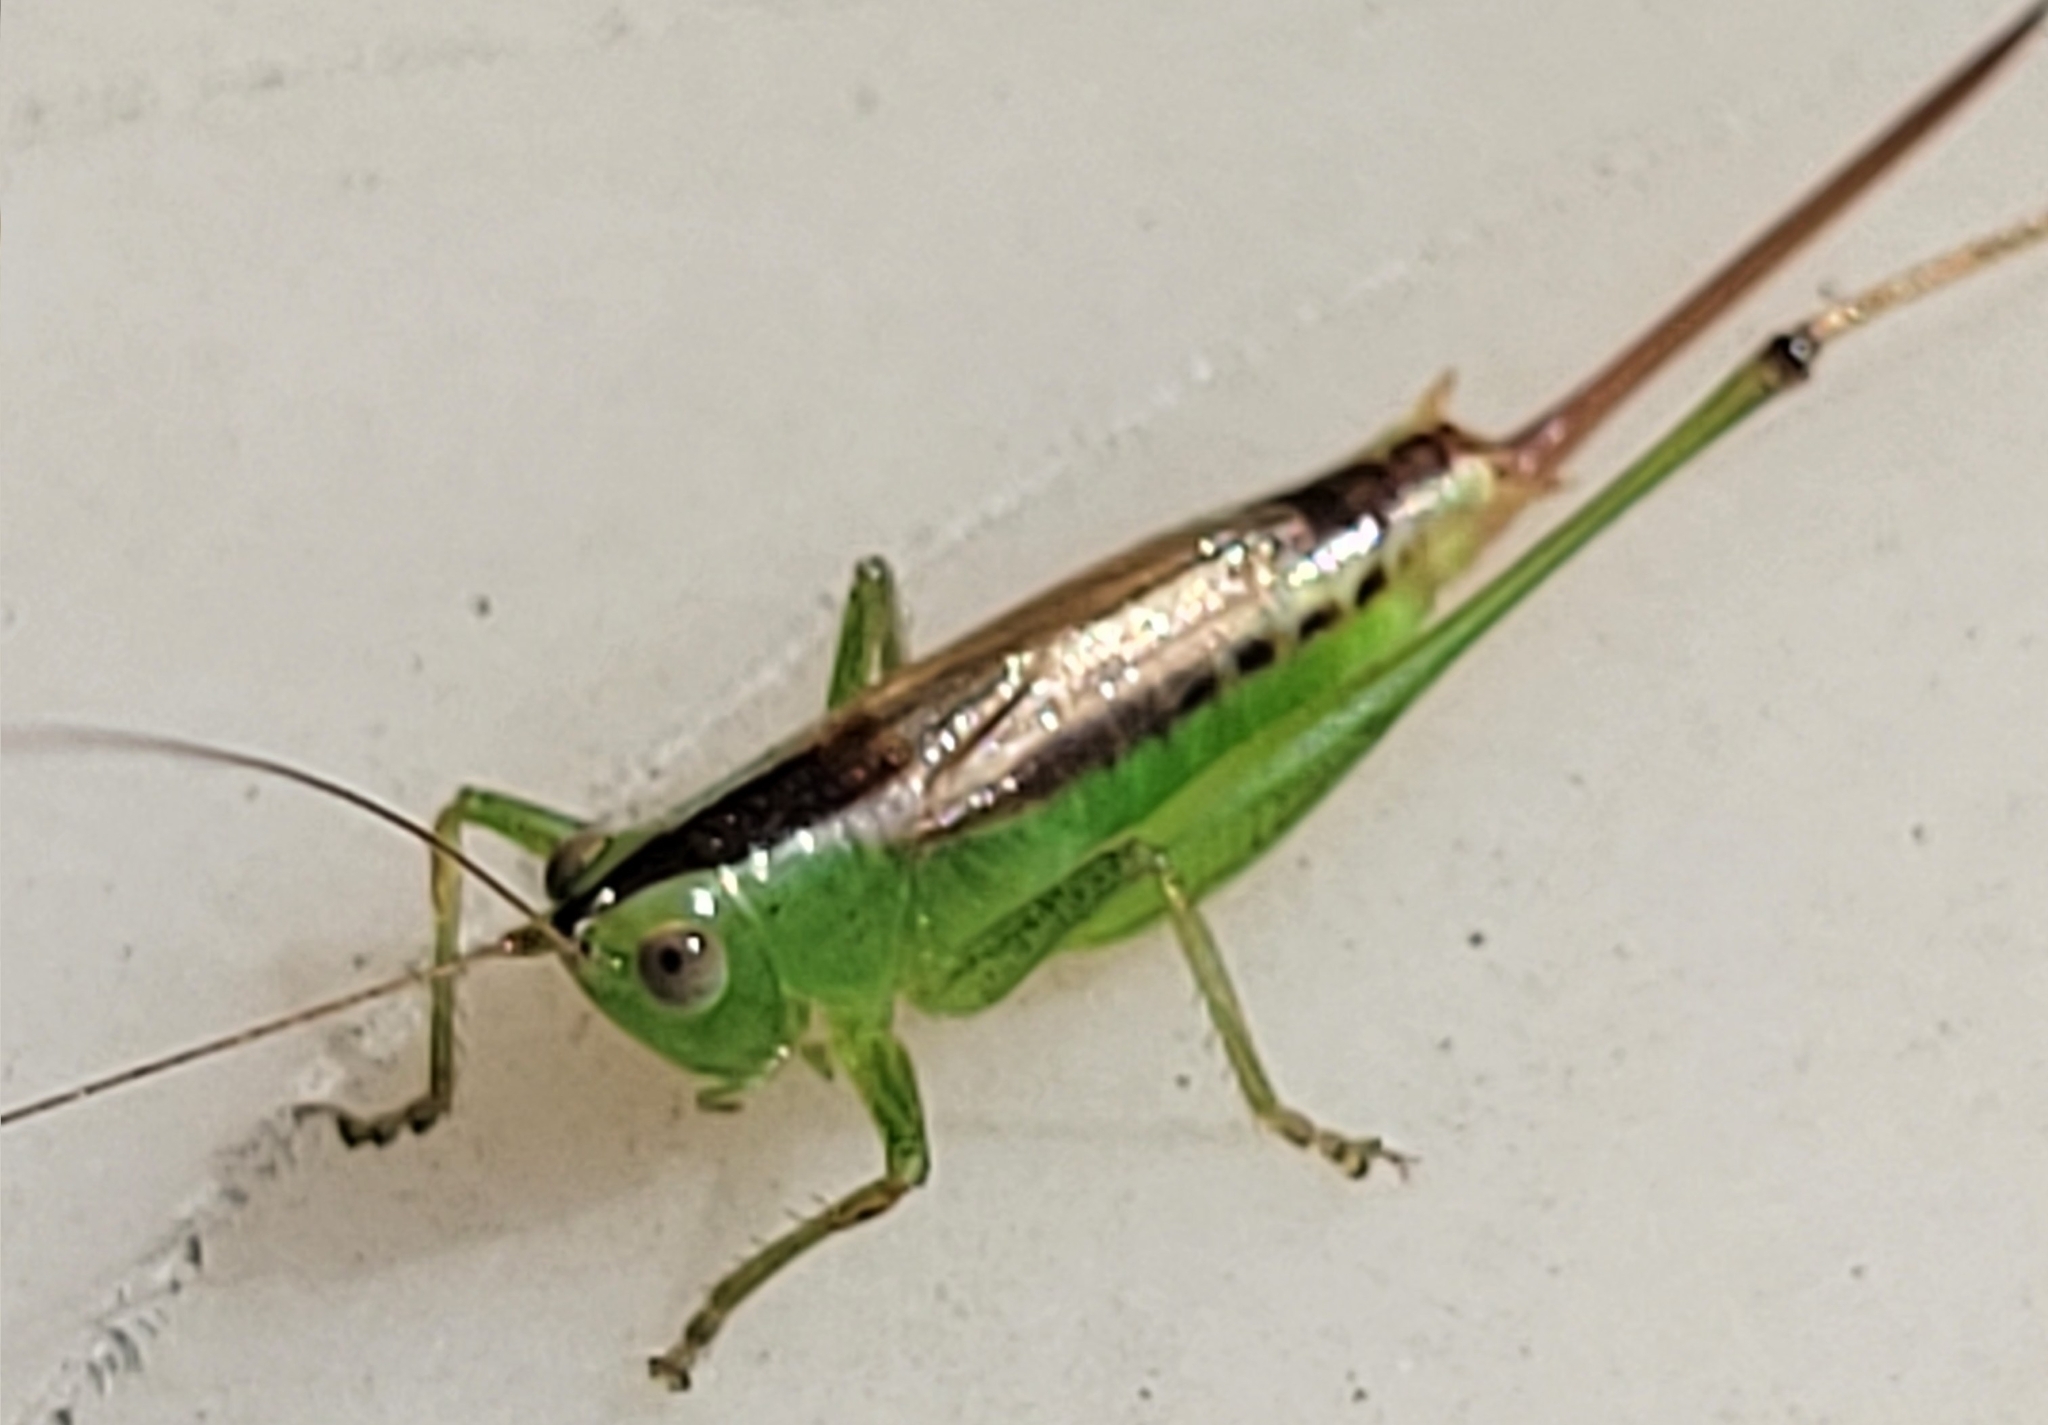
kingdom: Animalia
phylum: Arthropoda
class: Insecta
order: Orthoptera
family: Tettigoniidae
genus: Conocephalus
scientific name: Conocephalus brevipennis
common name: Short-winged meadow katydid
